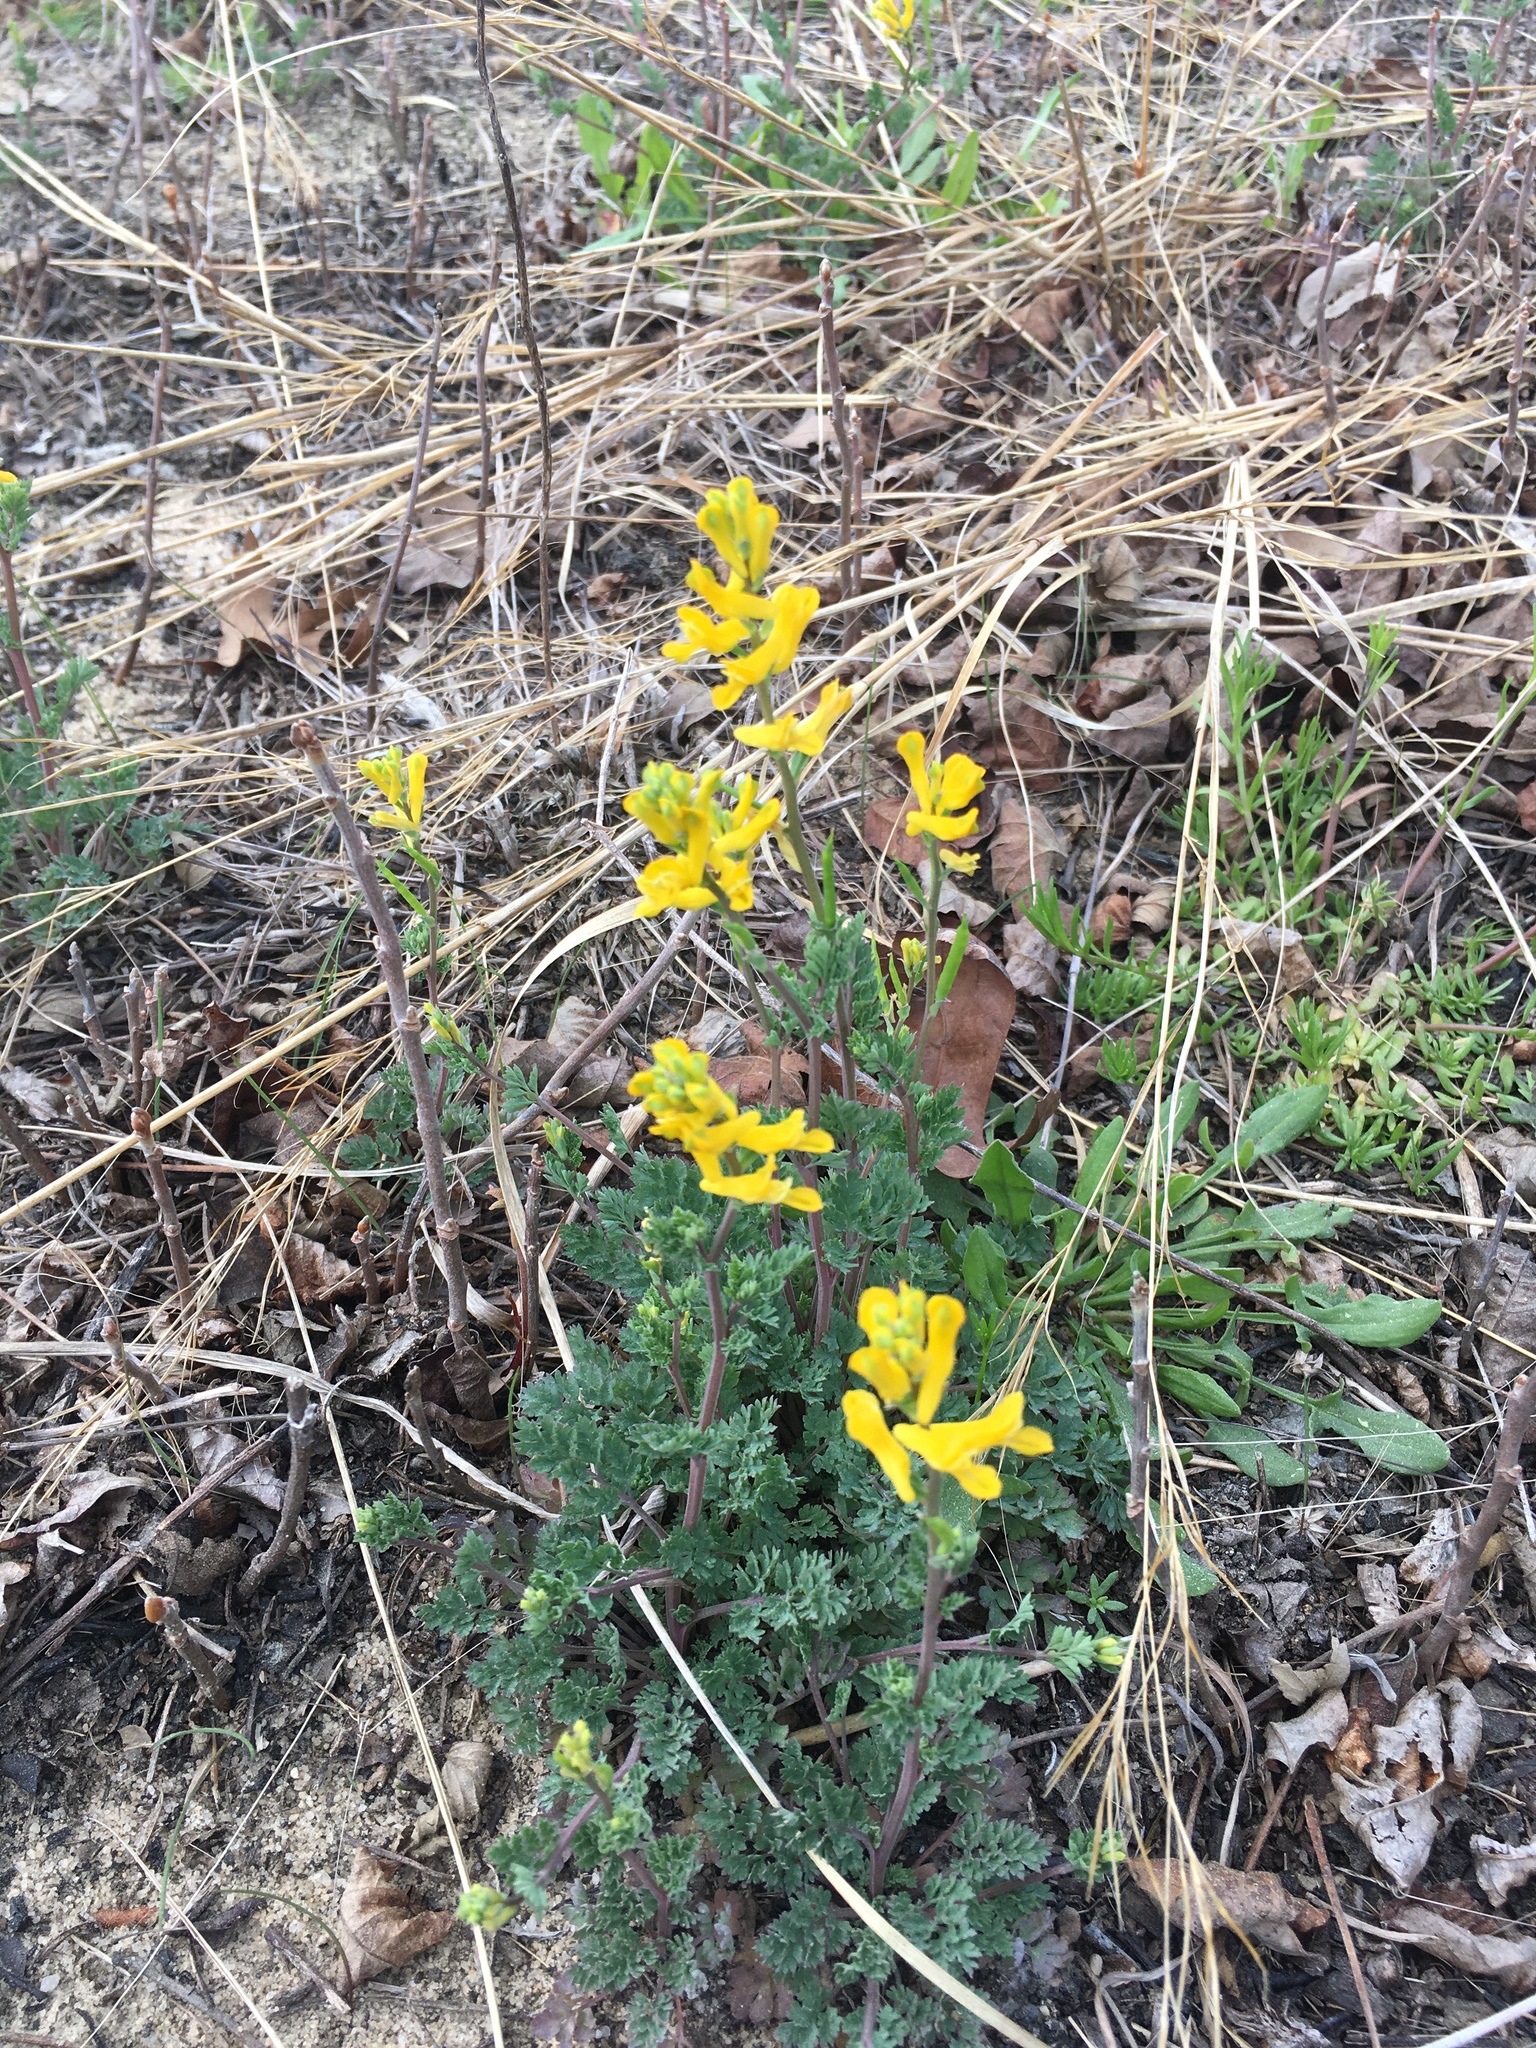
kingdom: Plantae
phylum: Tracheophyta
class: Magnoliopsida
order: Ranunculales
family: Papaveraceae
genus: Corydalis
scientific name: Corydalis micrantha
